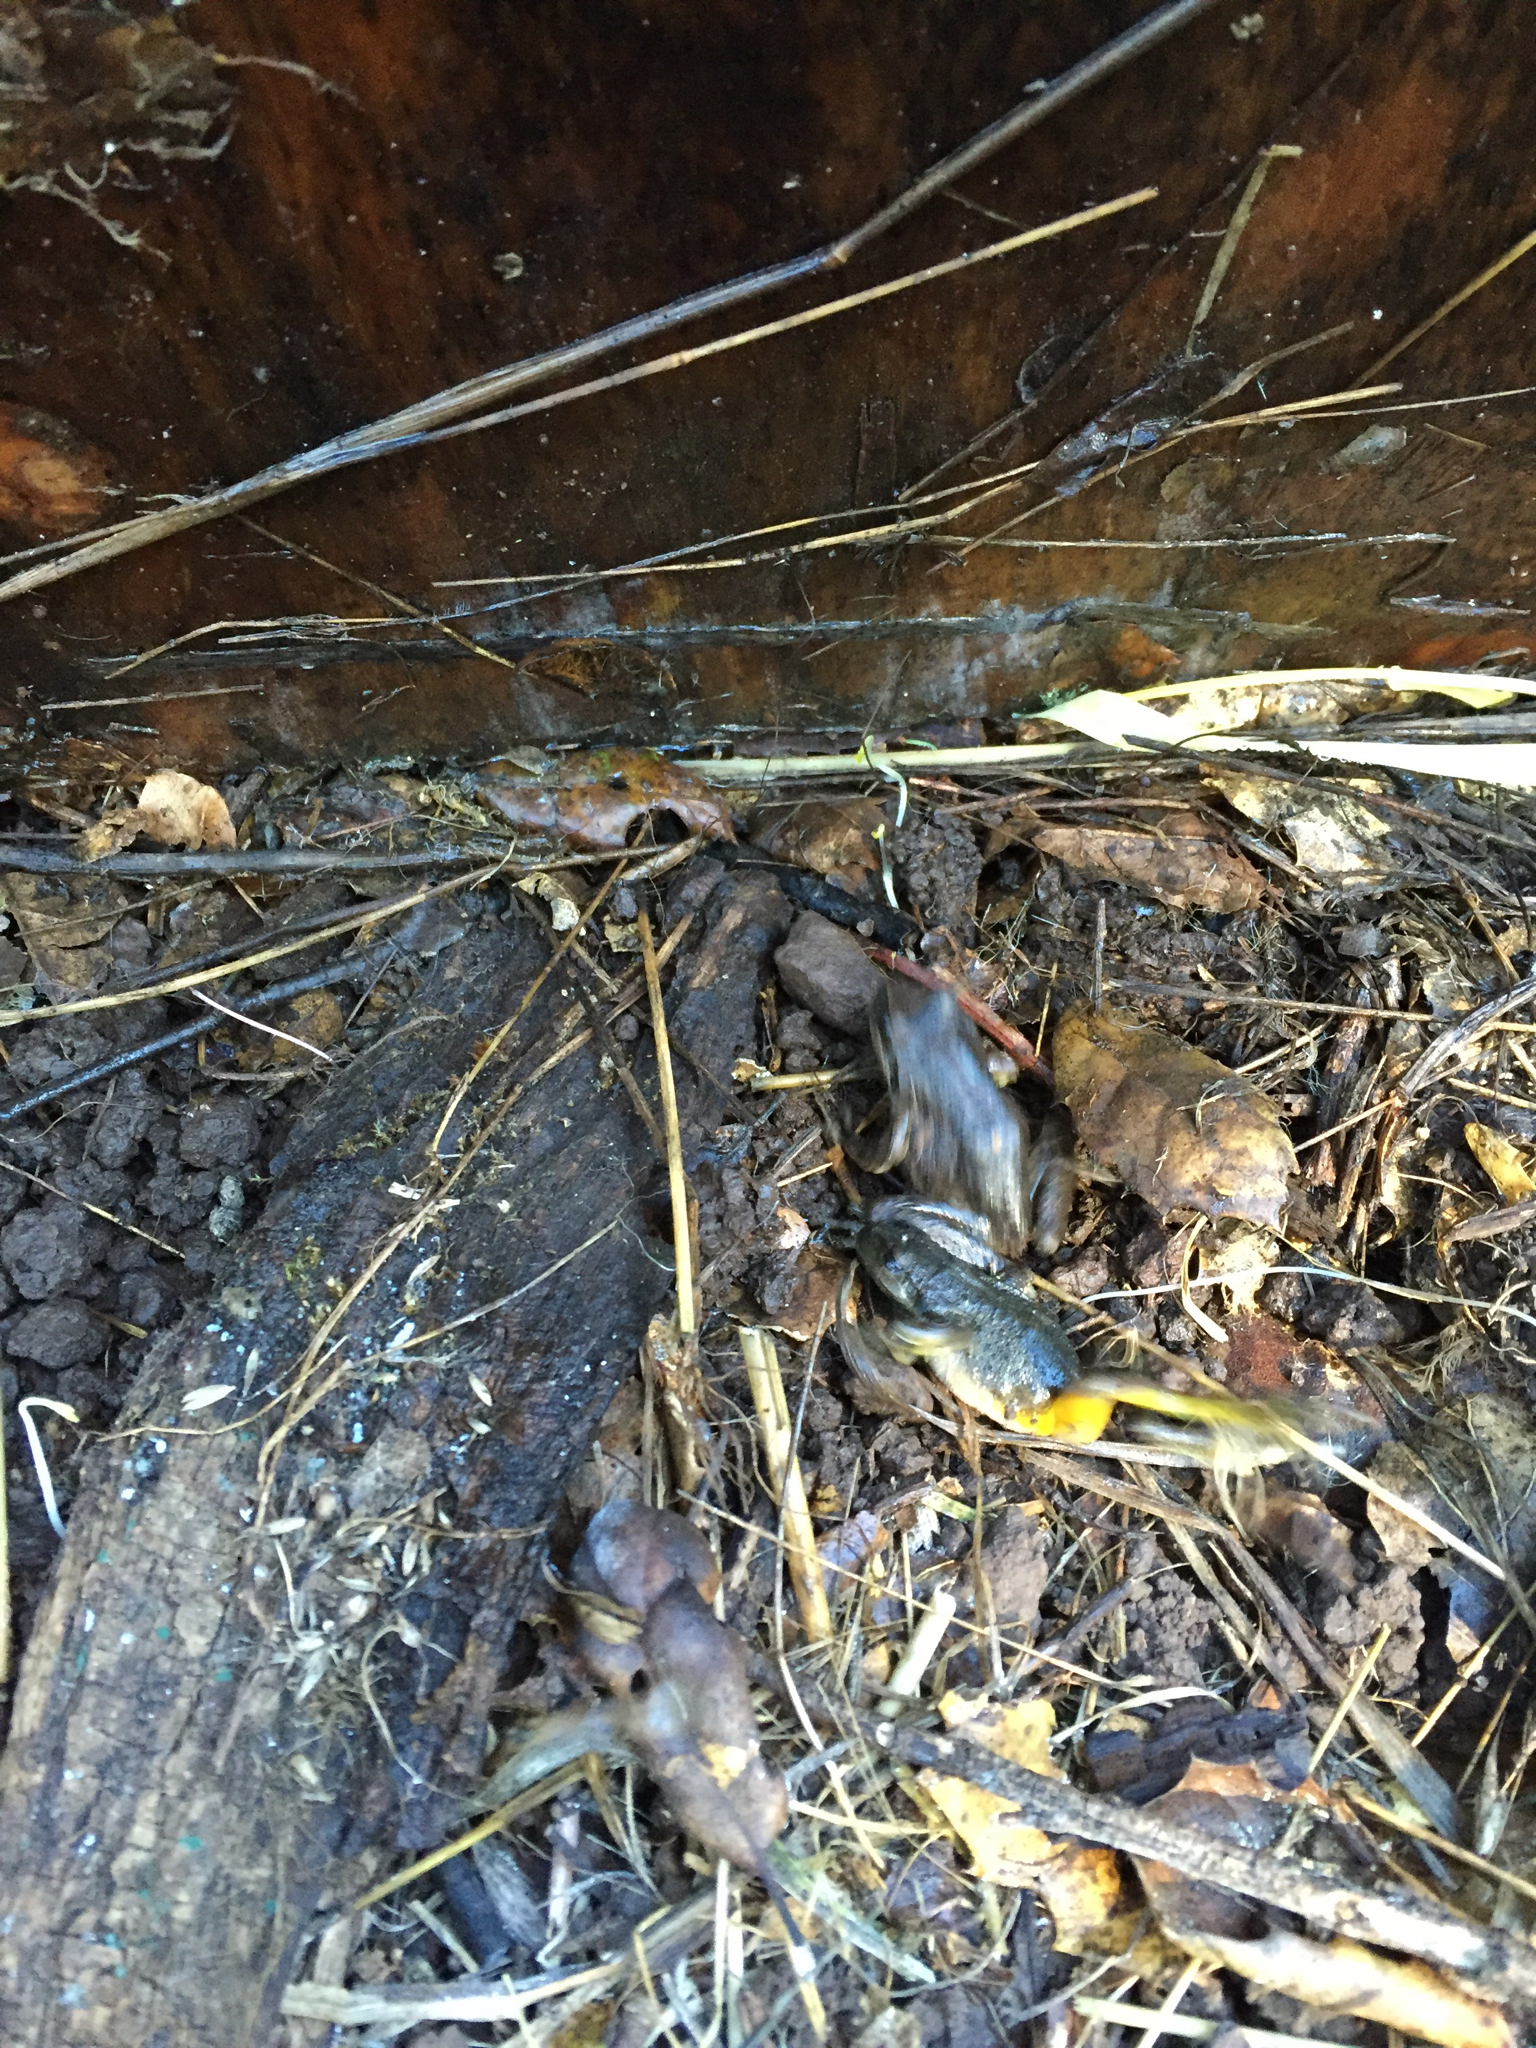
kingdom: Animalia
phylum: Chordata
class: Amphibia
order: Anura
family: Hylidae
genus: Pseudacris
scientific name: Pseudacris regilla
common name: Pacific chorus frog
